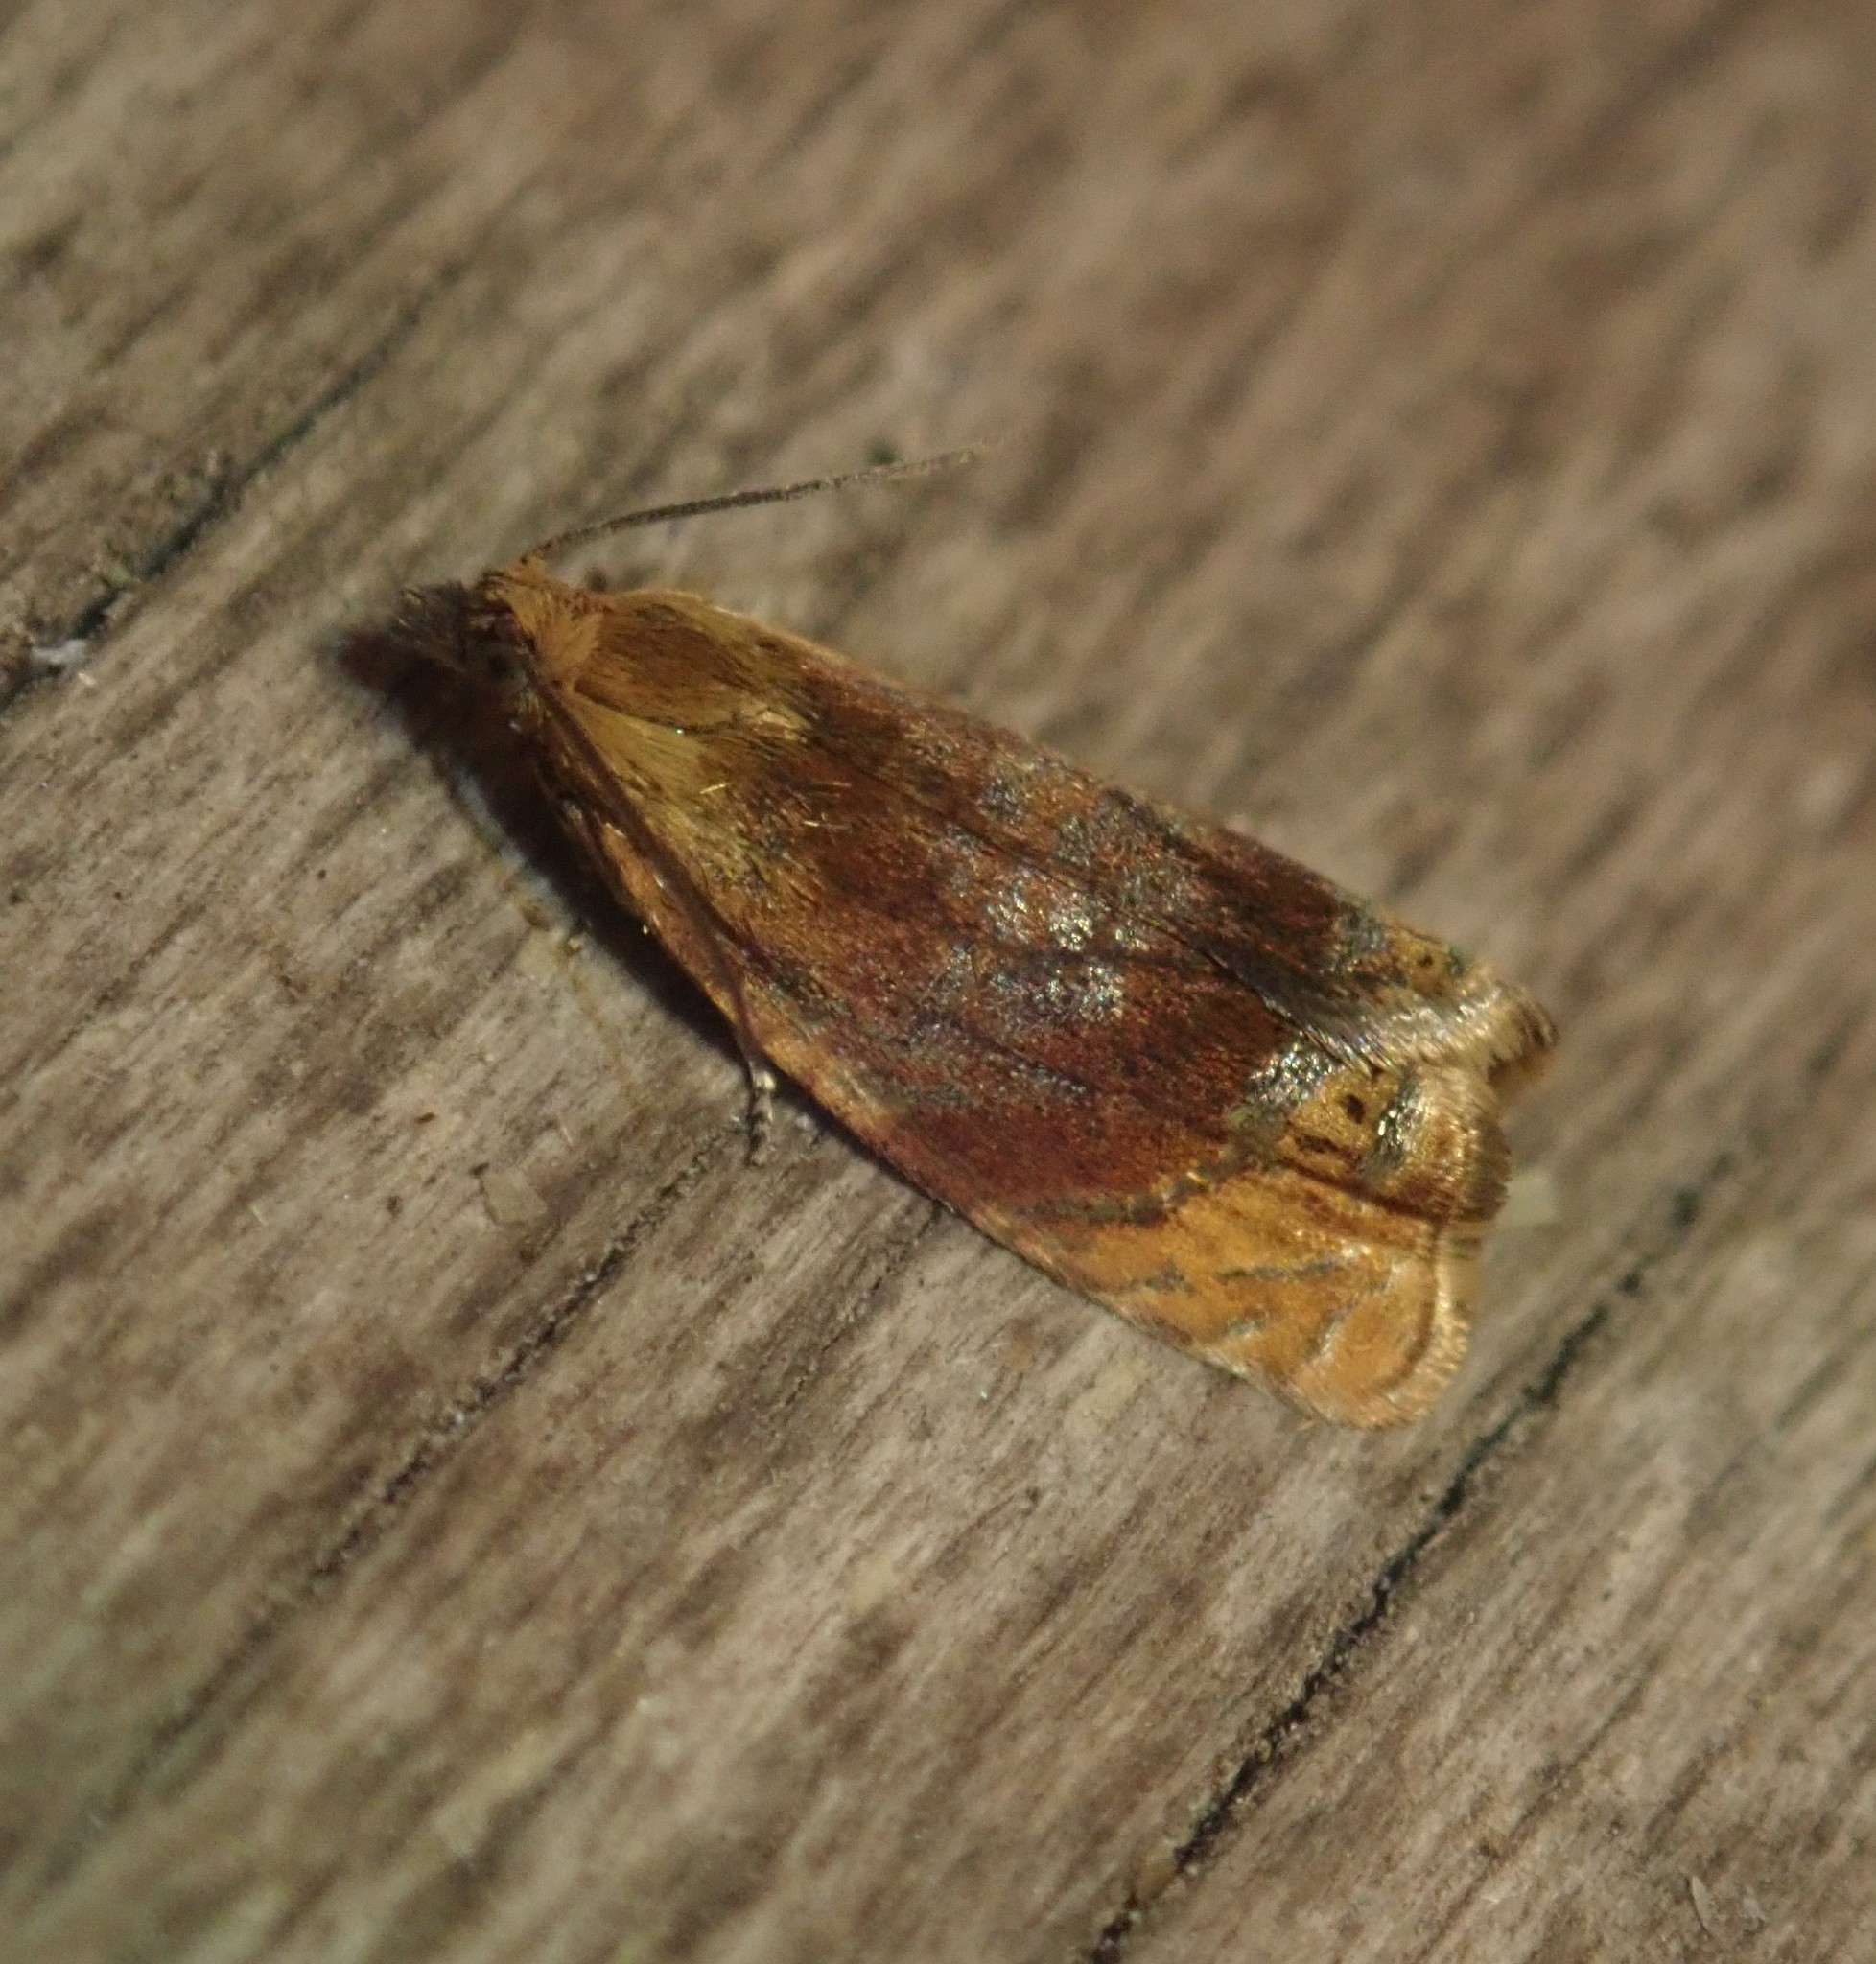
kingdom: Animalia
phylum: Arthropoda
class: Insecta
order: Lepidoptera
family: Tortricidae
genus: Ditula
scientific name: Ditula angustiorana
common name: Red-barred tortrix
